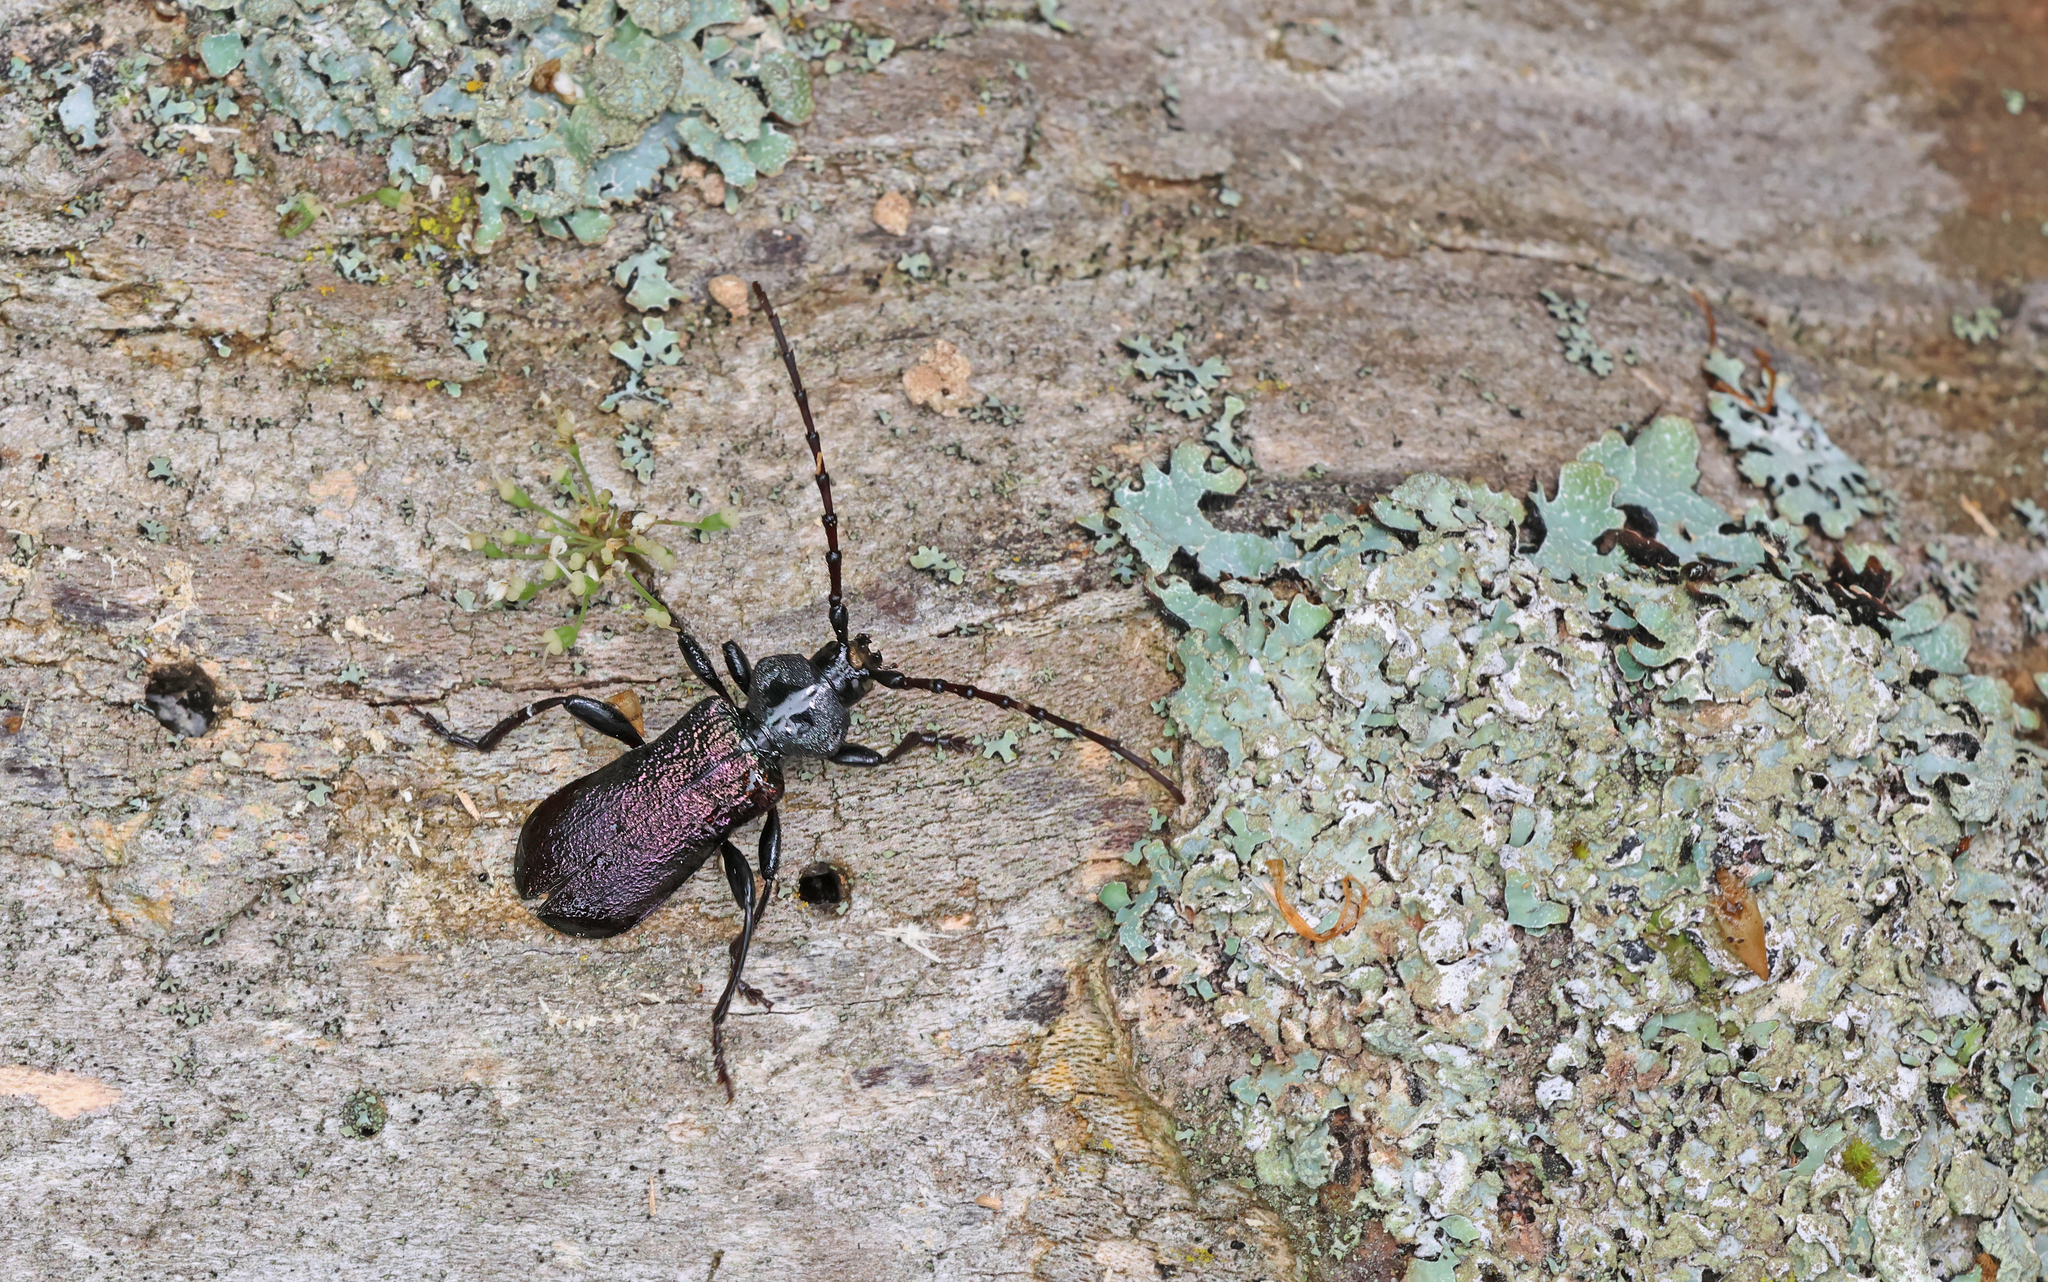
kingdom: Animalia
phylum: Arthropoda
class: Insecta
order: Coleoptera
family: Cerambycidae
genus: Ropalopus
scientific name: Ropalopus ungaricus
